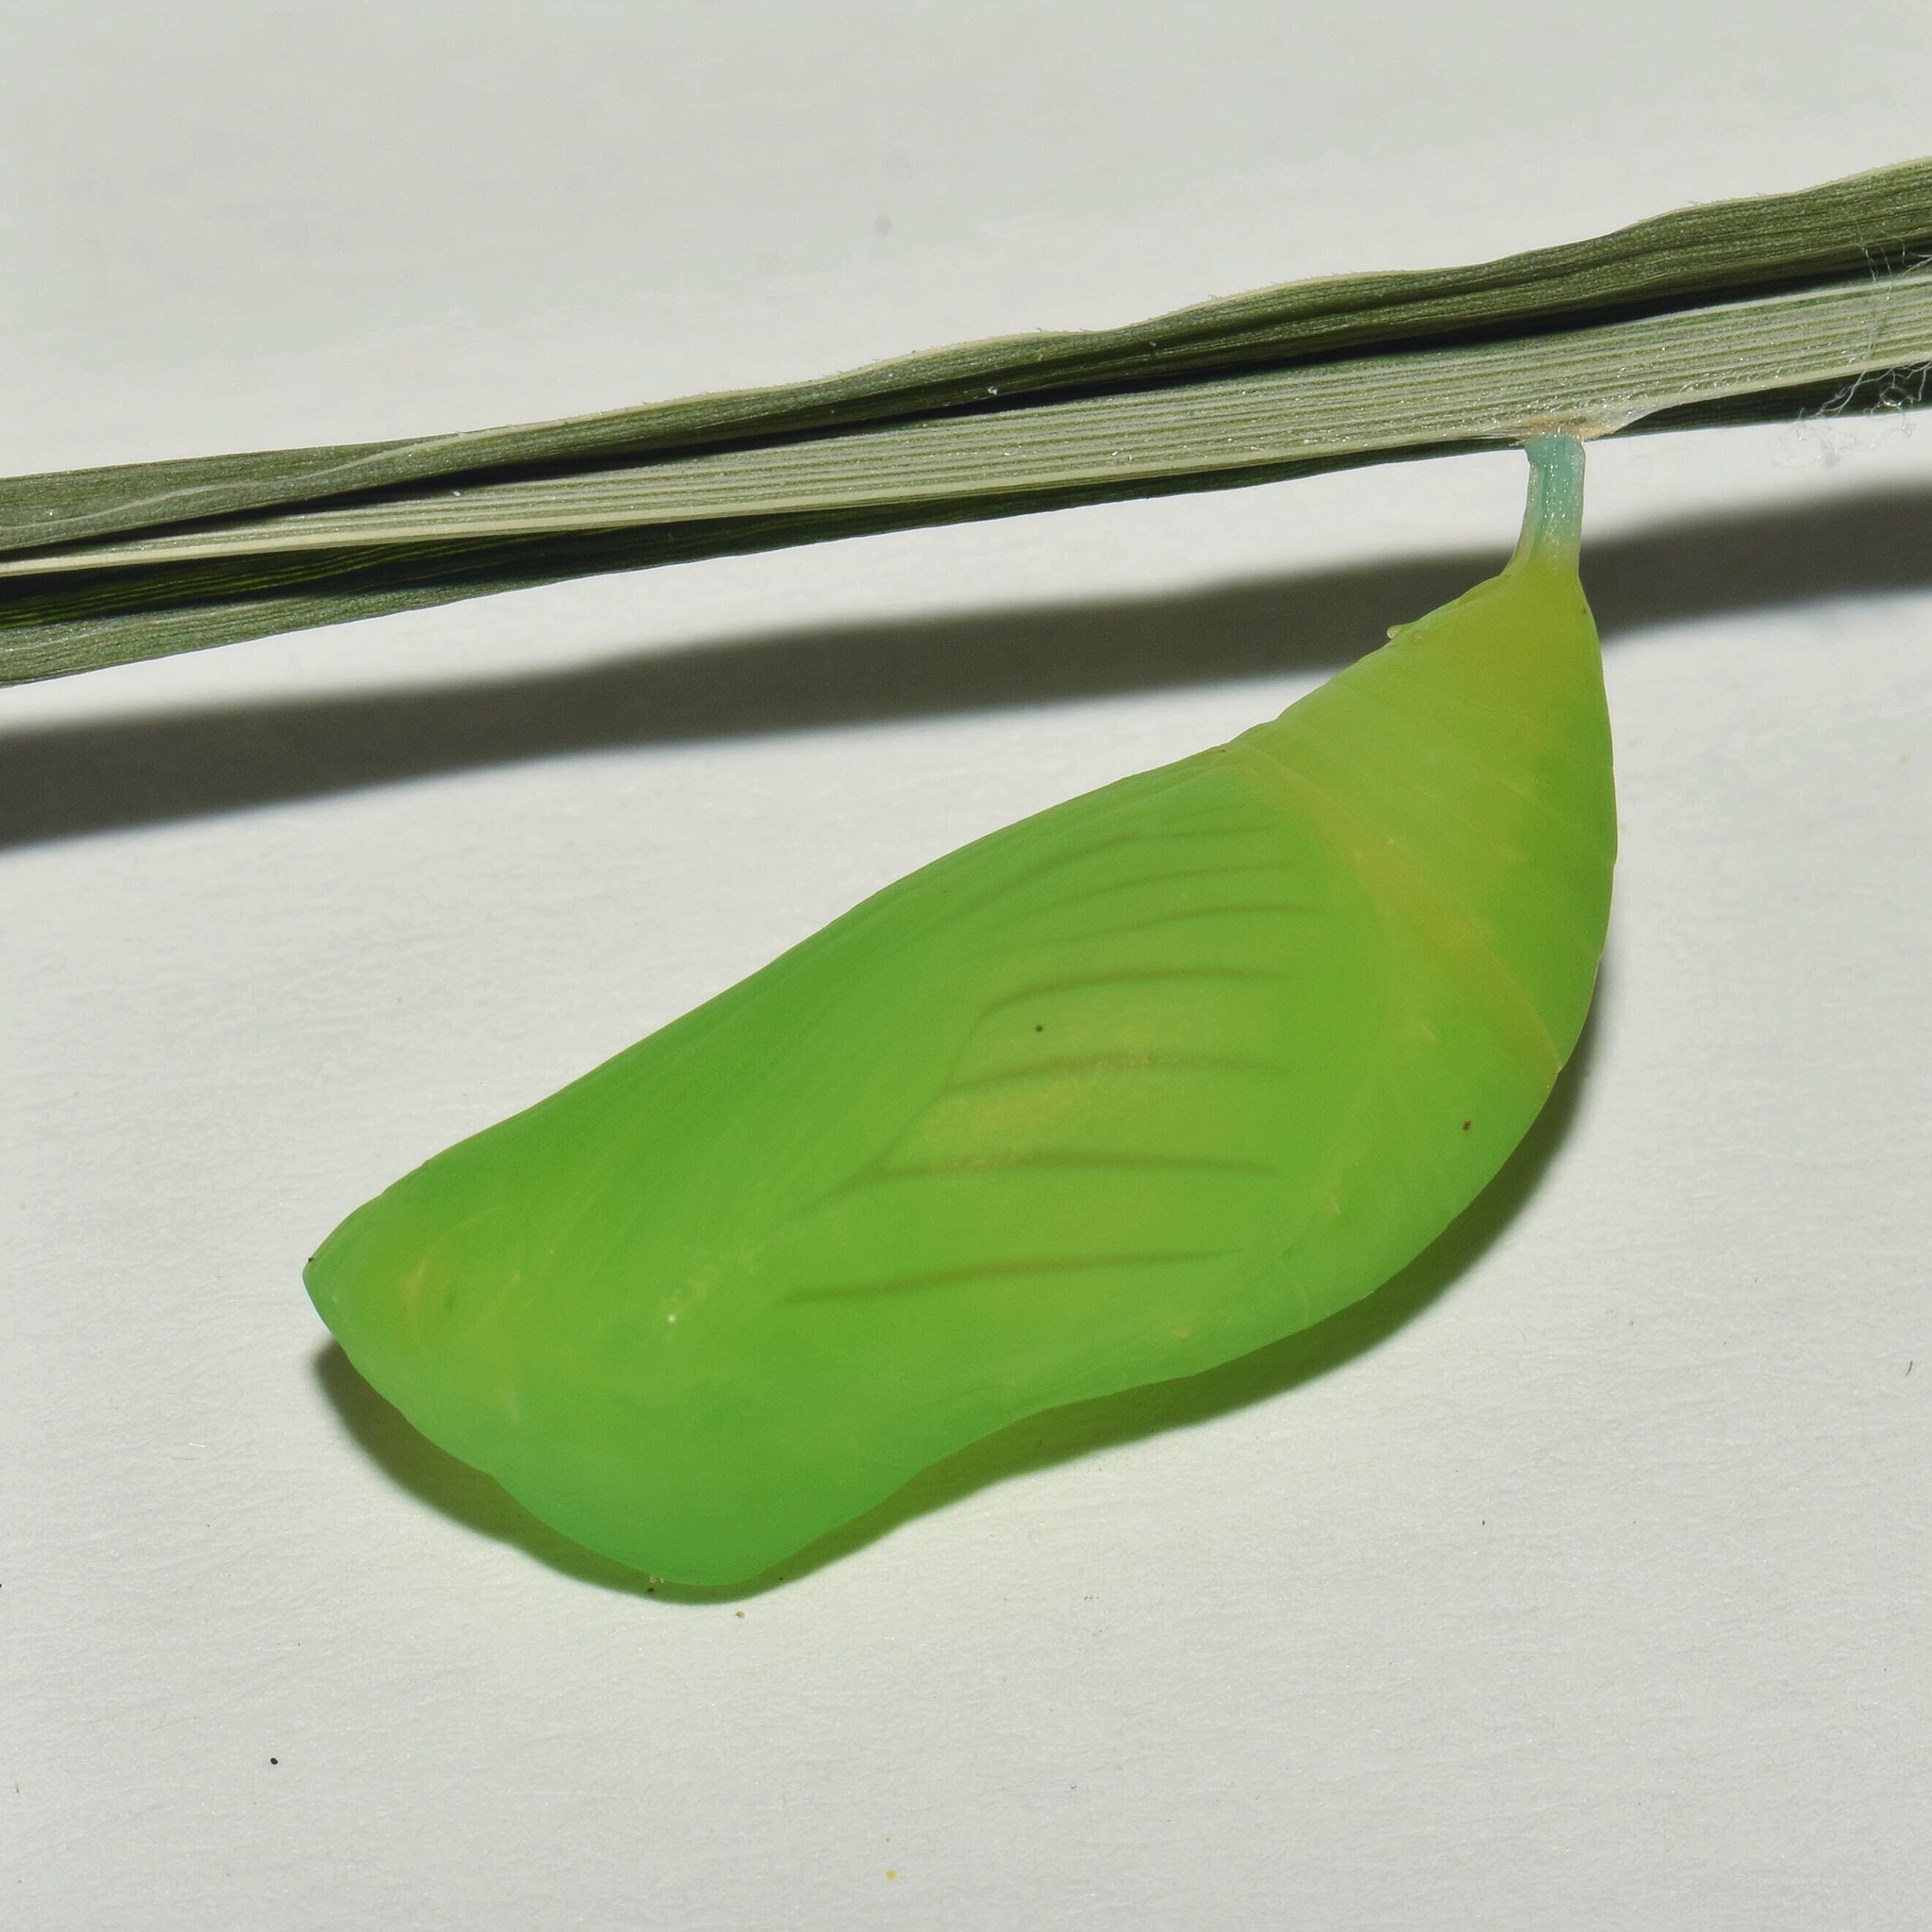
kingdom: Animalia
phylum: Arthropoda
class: Insecta
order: Lepidoptera
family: Nymphalidae
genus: Melanitis
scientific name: Melanitis leda
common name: Twilight brown
